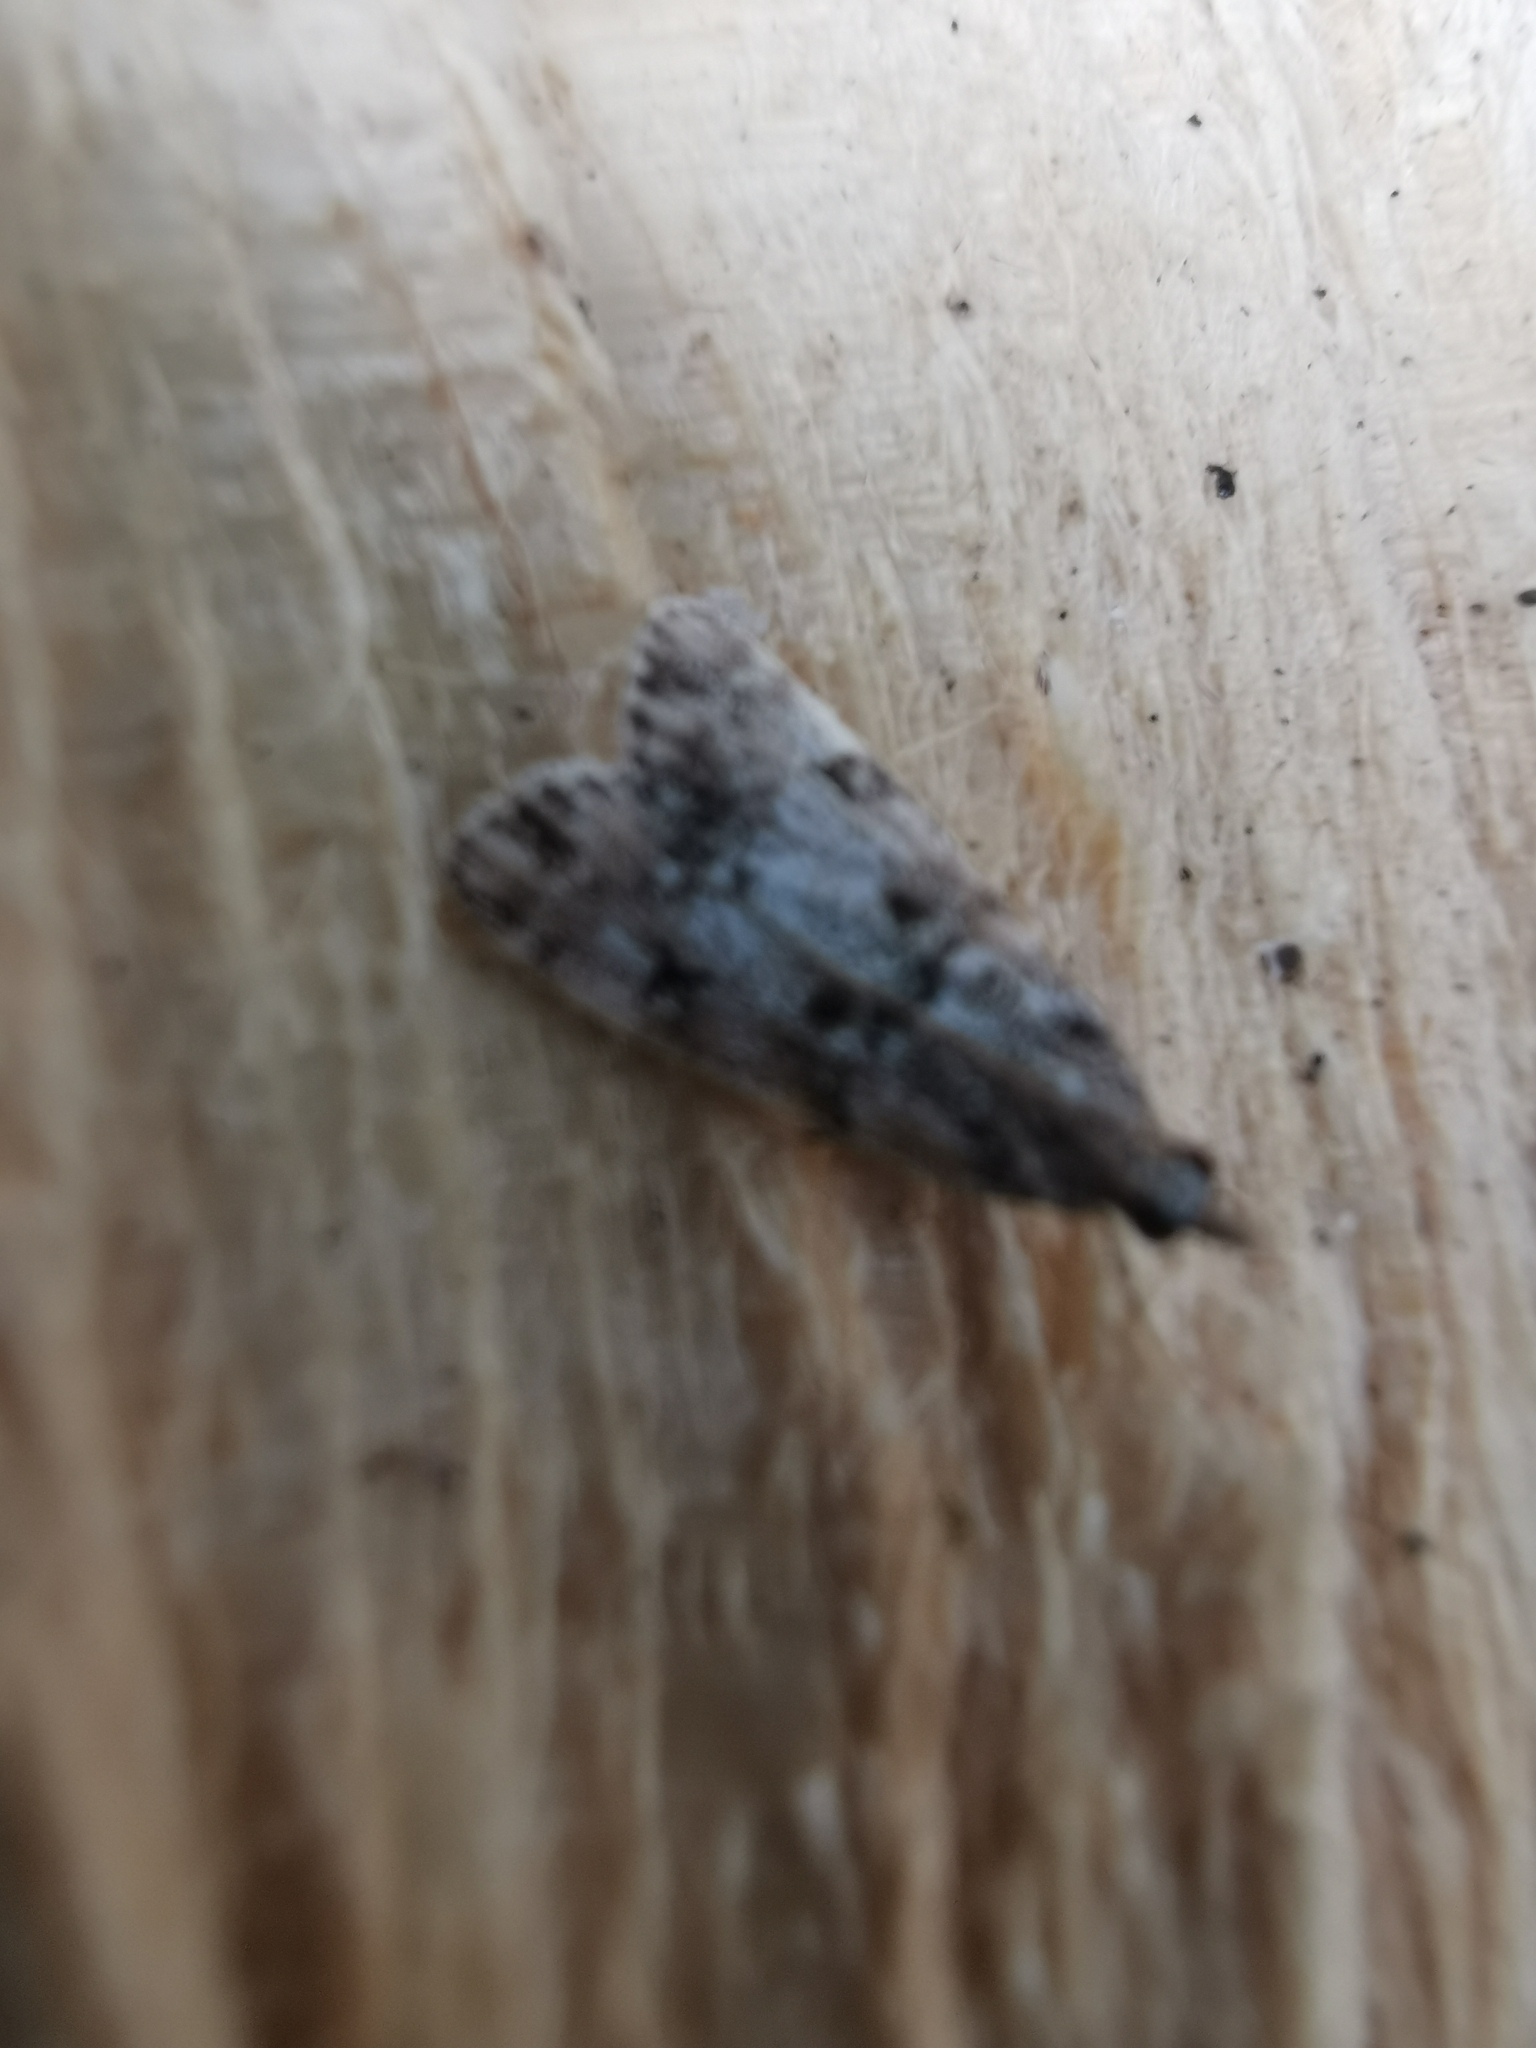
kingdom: Animalia
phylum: Arthropoda
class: Insecta
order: Lepidoptera
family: Crambidae
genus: Eudonia
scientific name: Eudonia lacustrata
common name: Little grey
